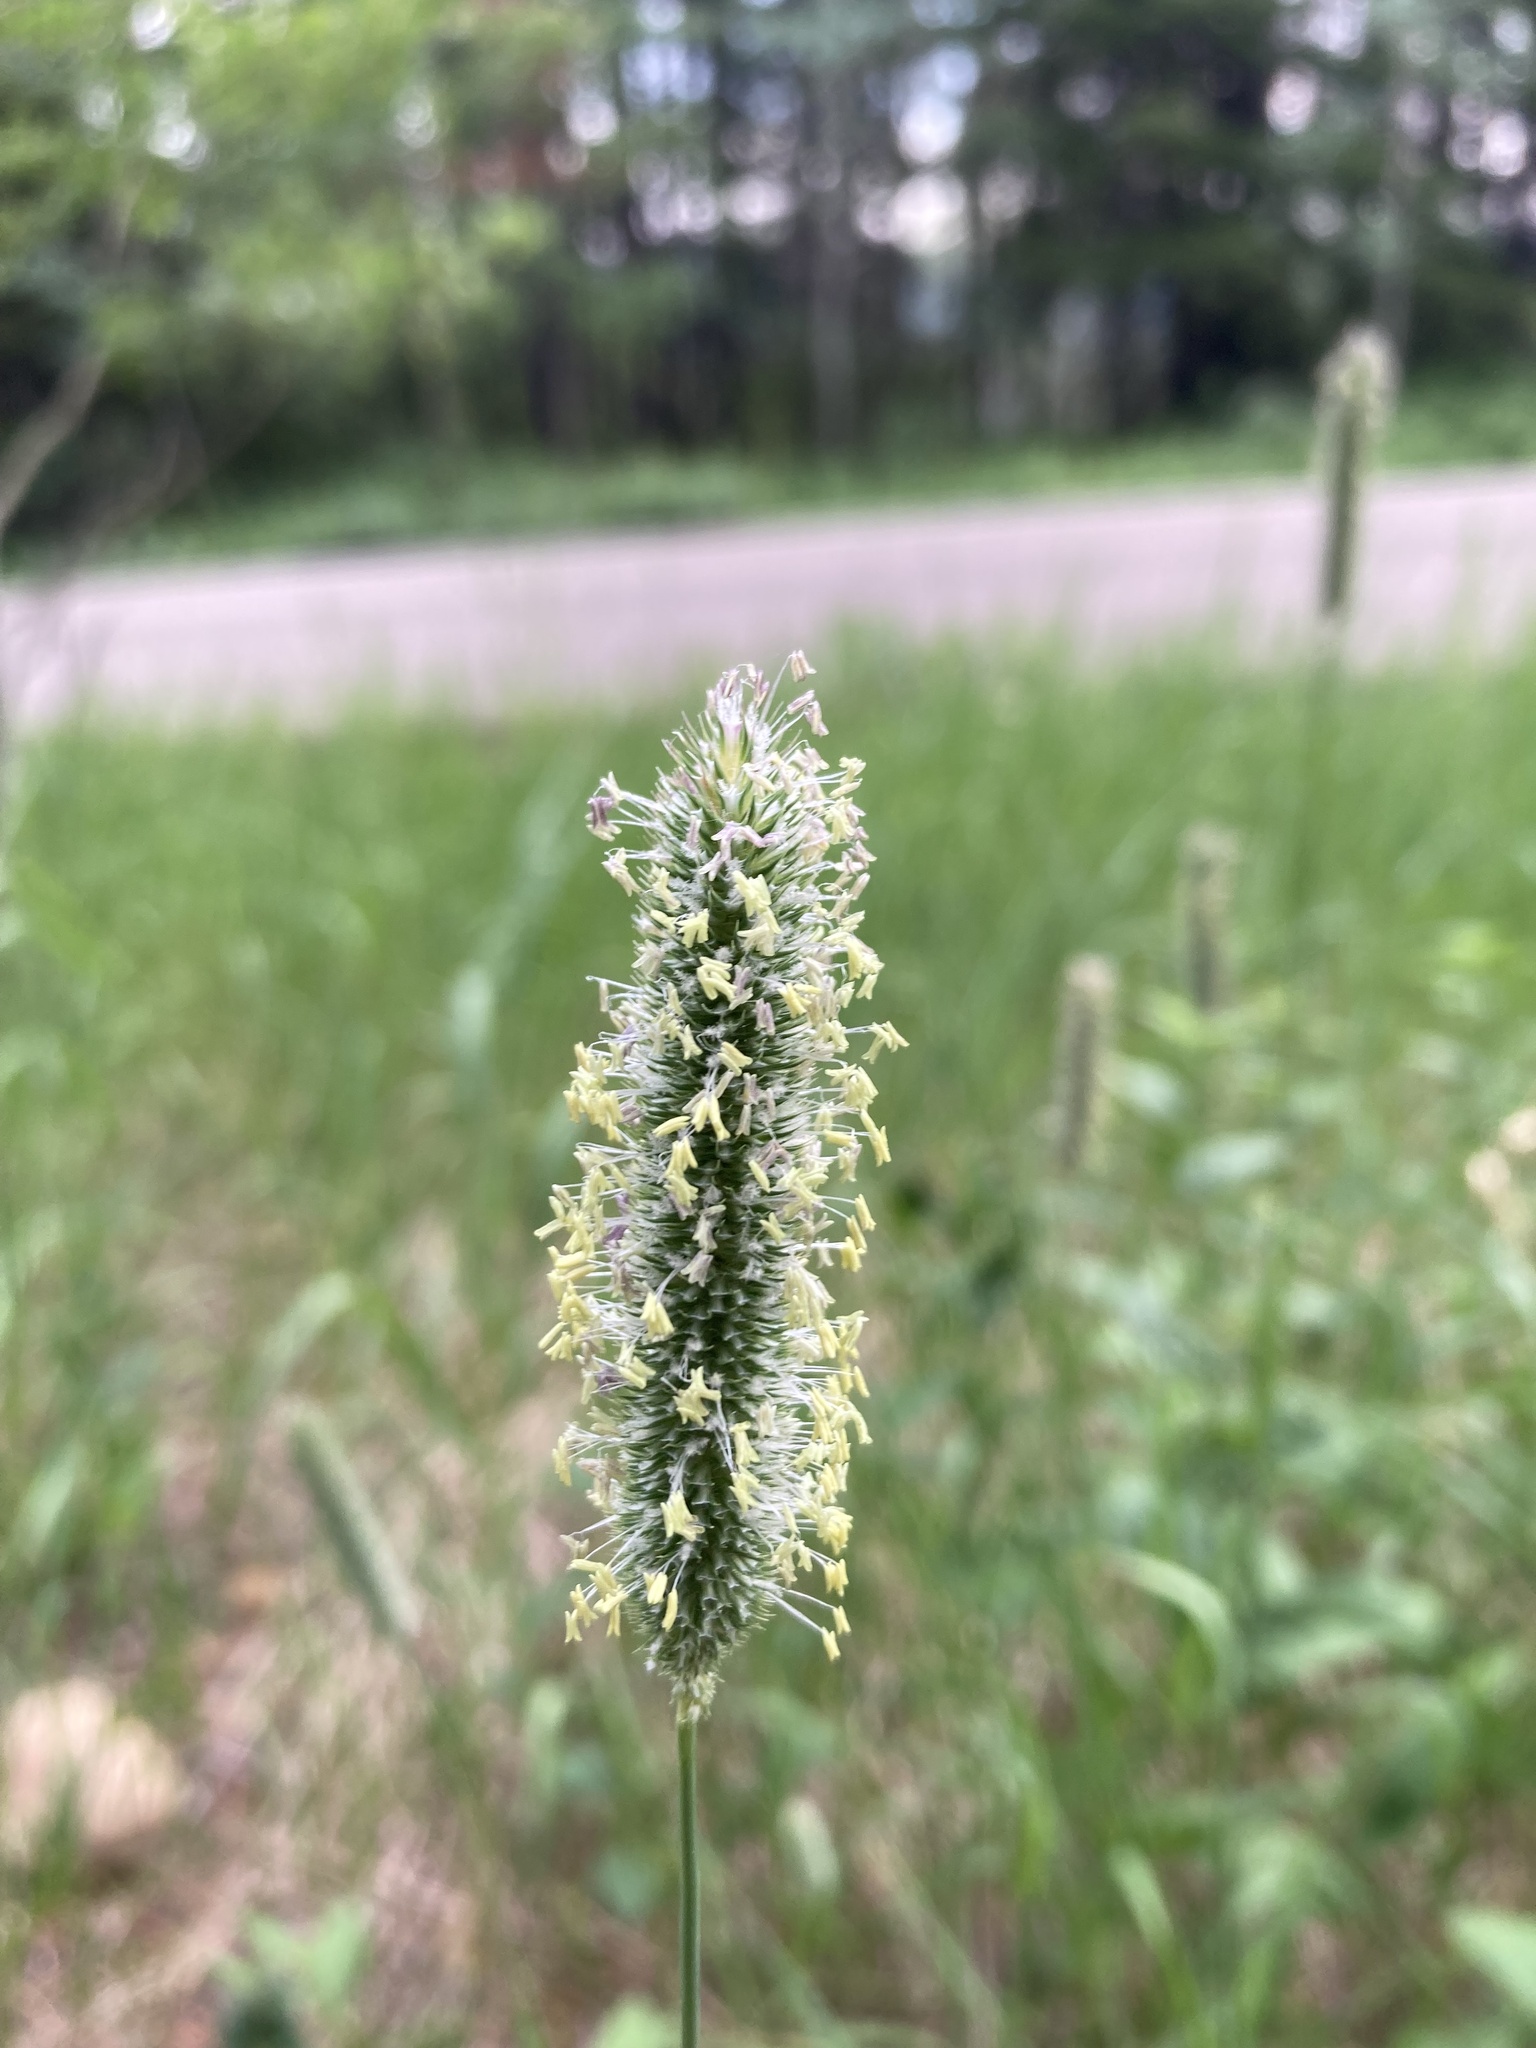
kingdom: Plantae
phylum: Tracheophyta
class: Liliopsida
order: Poales
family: Poaceae
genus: Phleum
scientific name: Phleum pratense
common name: Timothy grass
